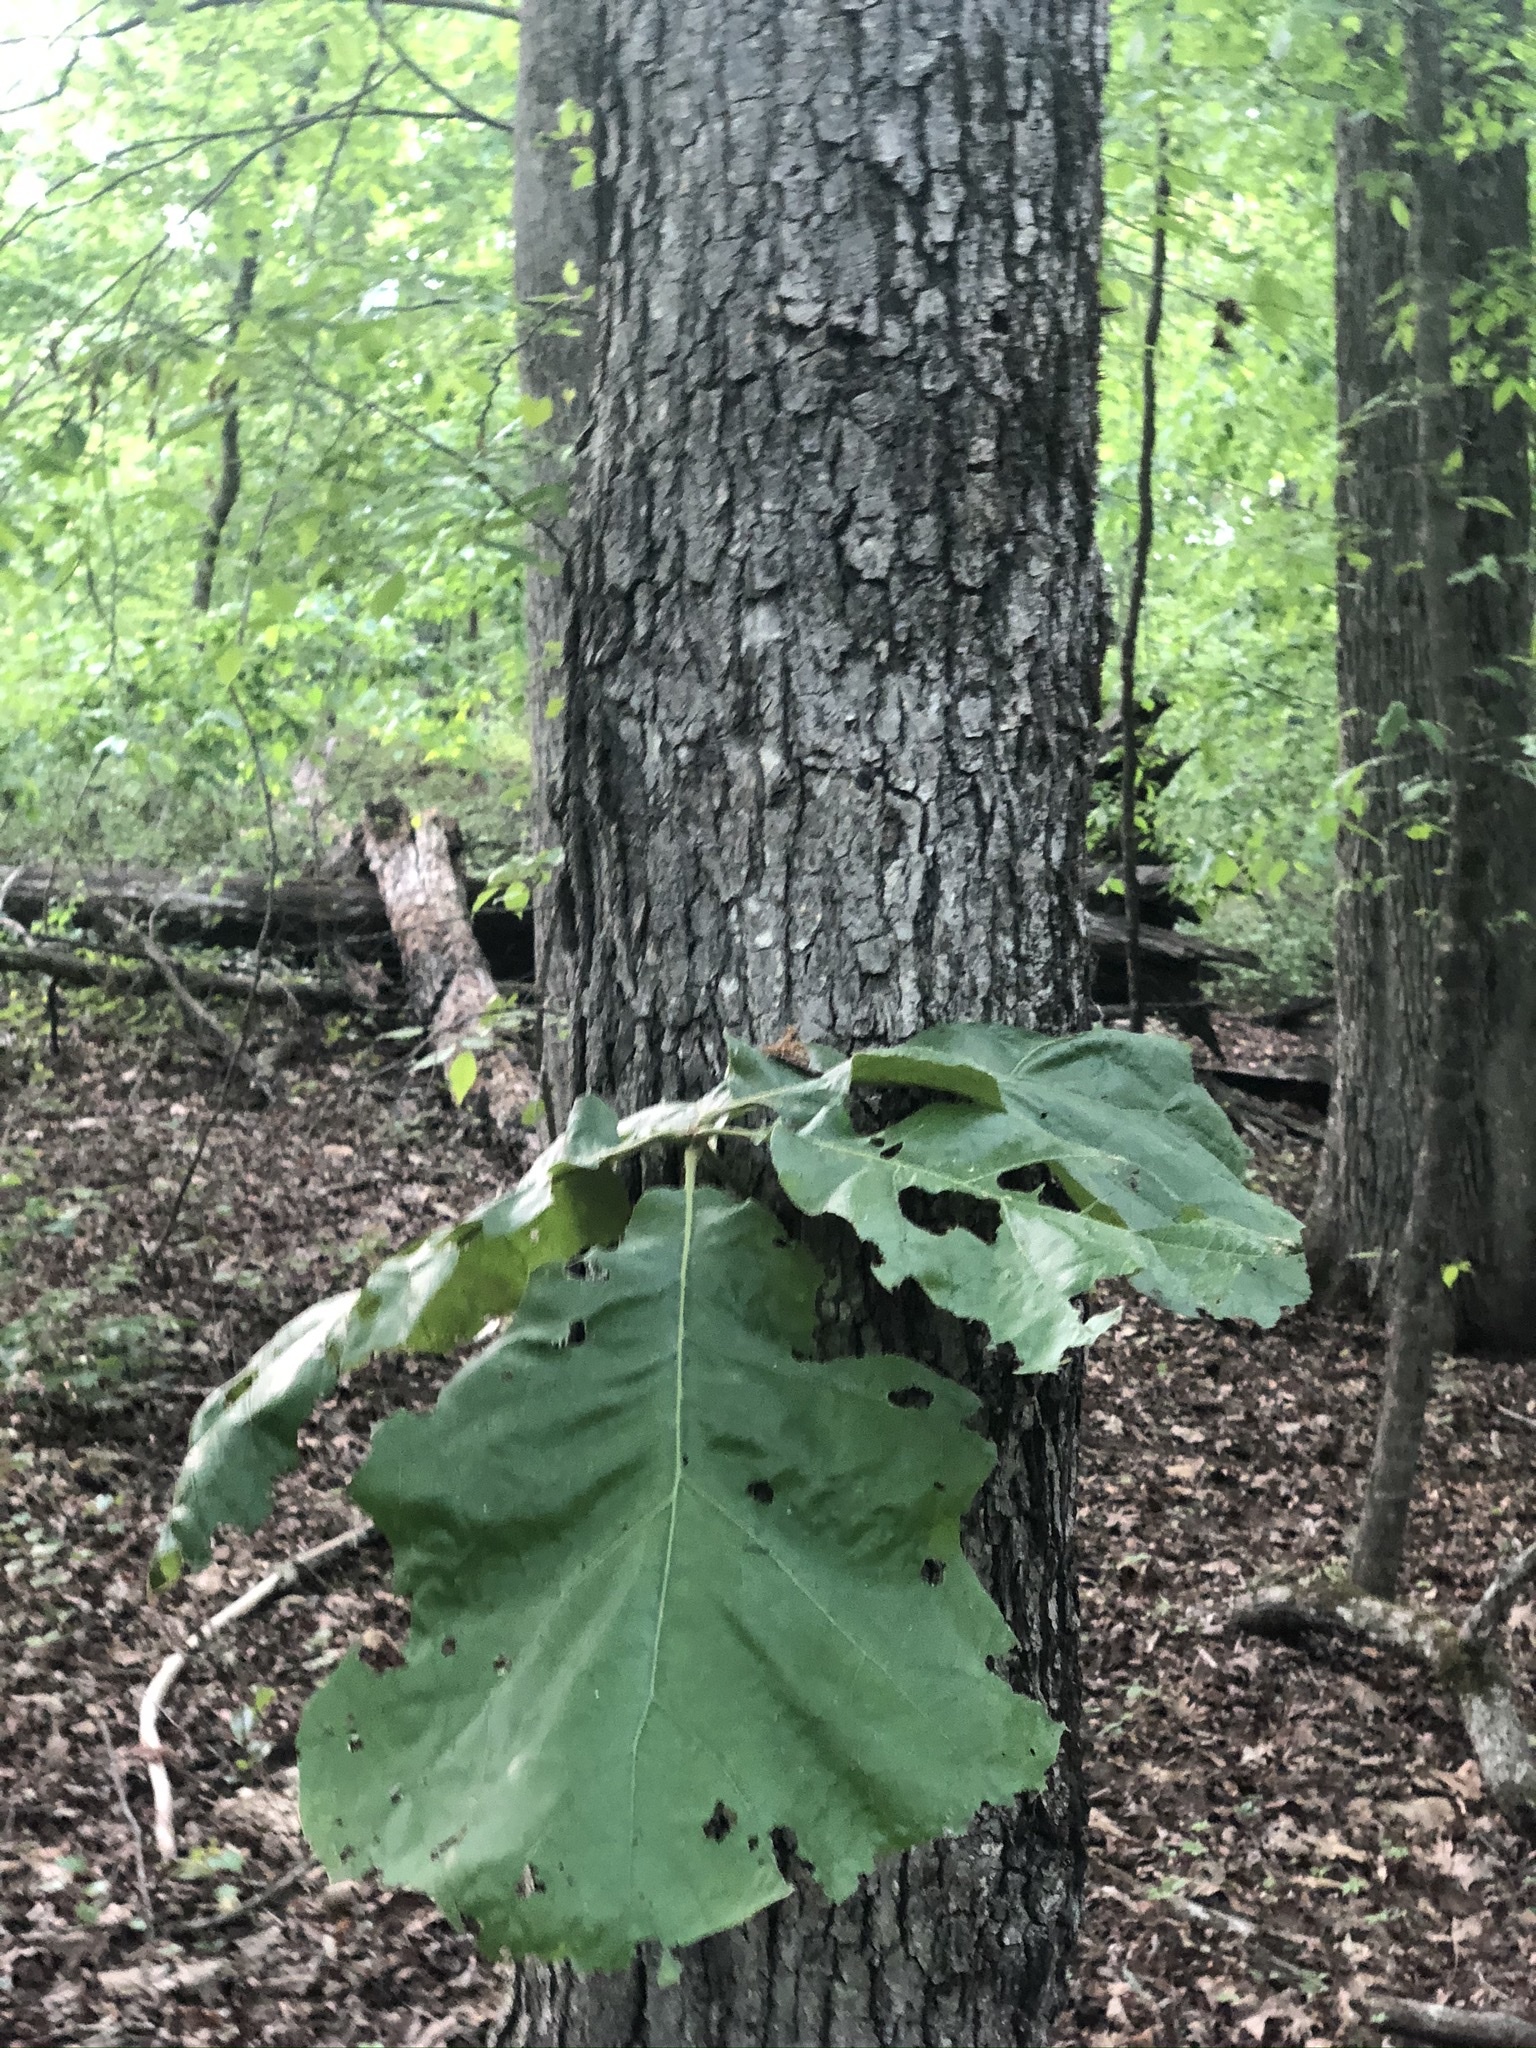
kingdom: Plantae
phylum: Tracheophyta
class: Magnoliopsida
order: Fagales
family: Fagaceae
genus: Quercus
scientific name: Quercus velutina
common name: Black oak
